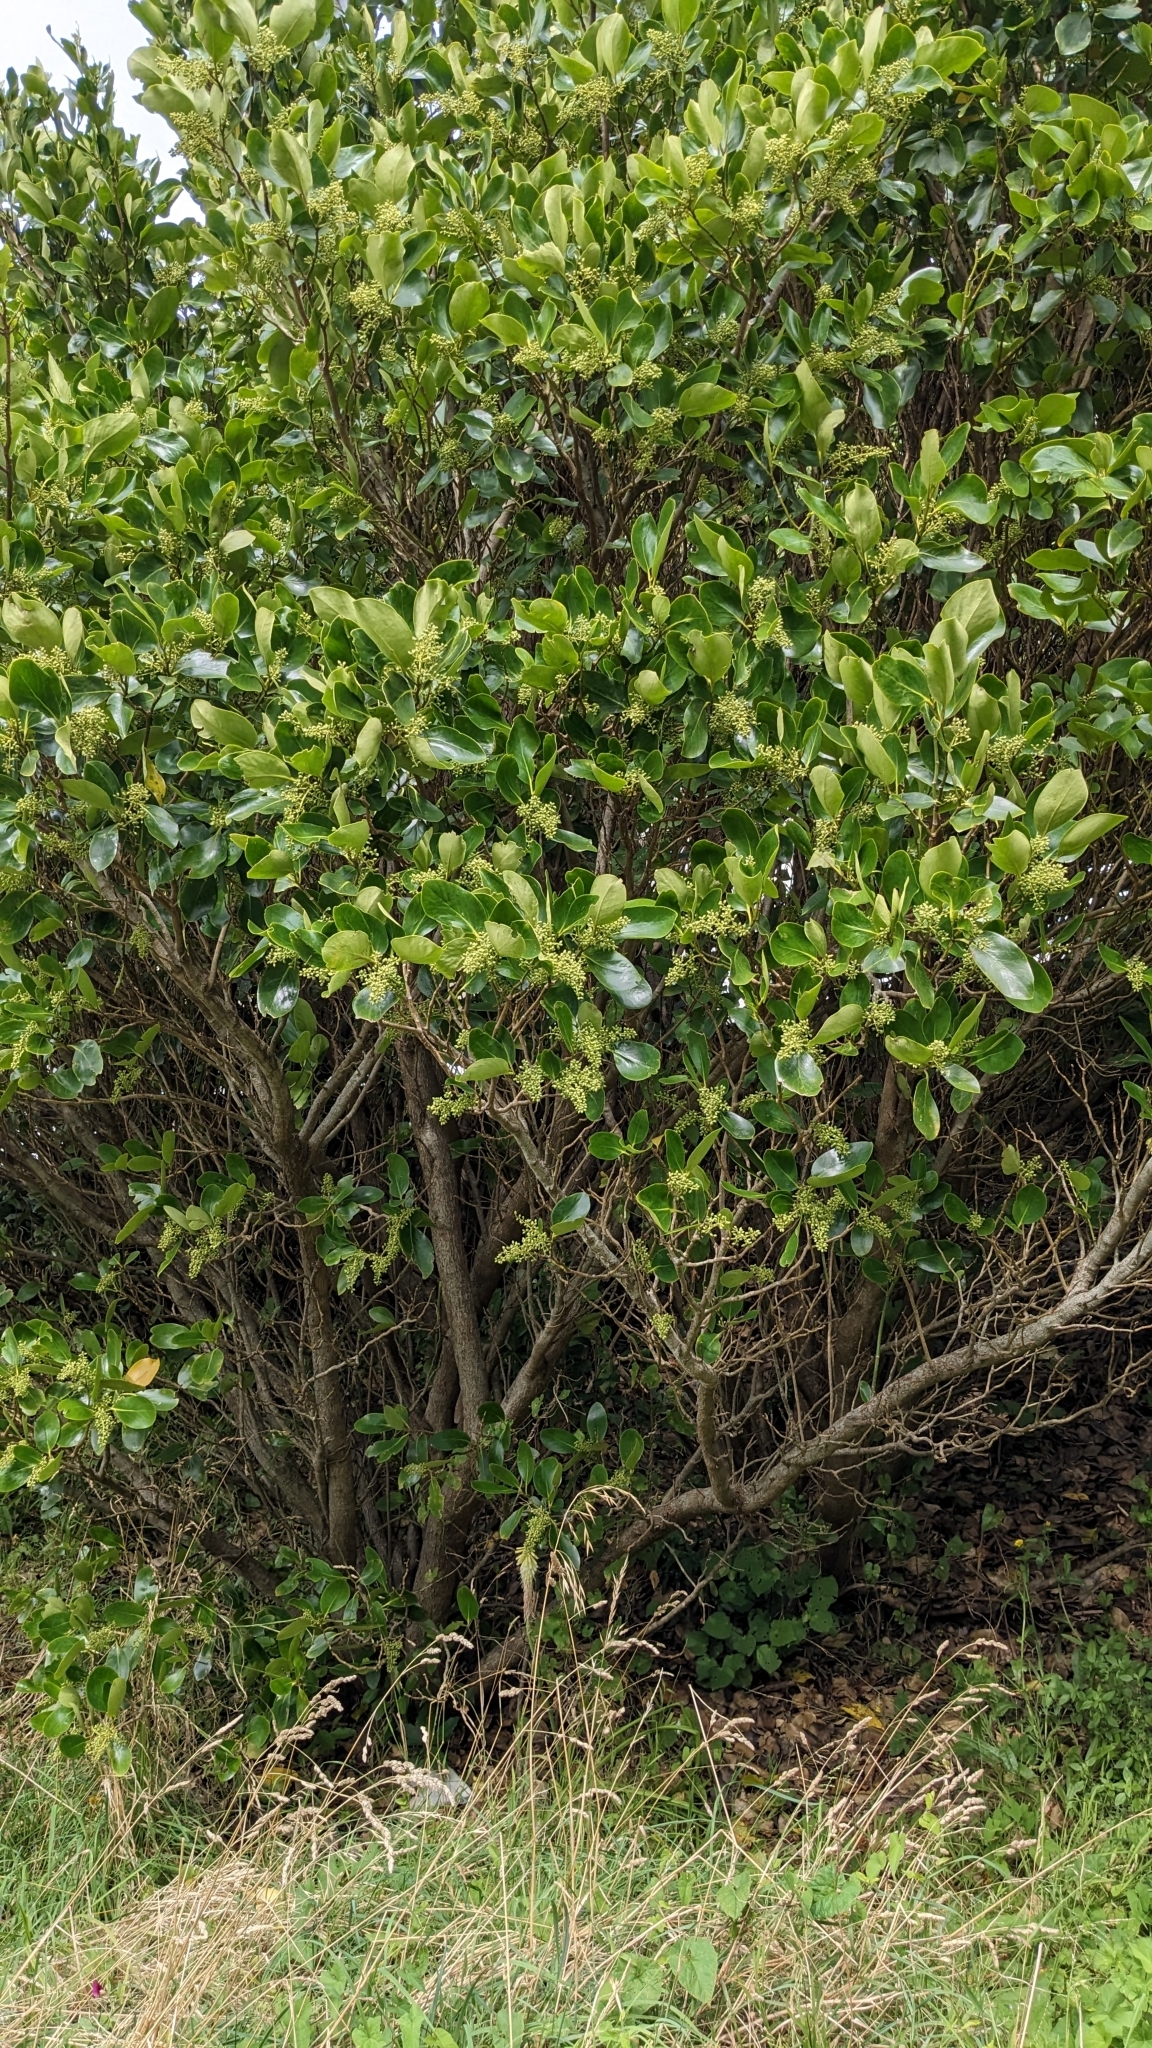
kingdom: Plantae
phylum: Tracheophyta
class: Magnoliopsida
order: Apiales
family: Griseliniaceae
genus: Griselinia
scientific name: Griselinia littoralis
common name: New zealand broadleaf
